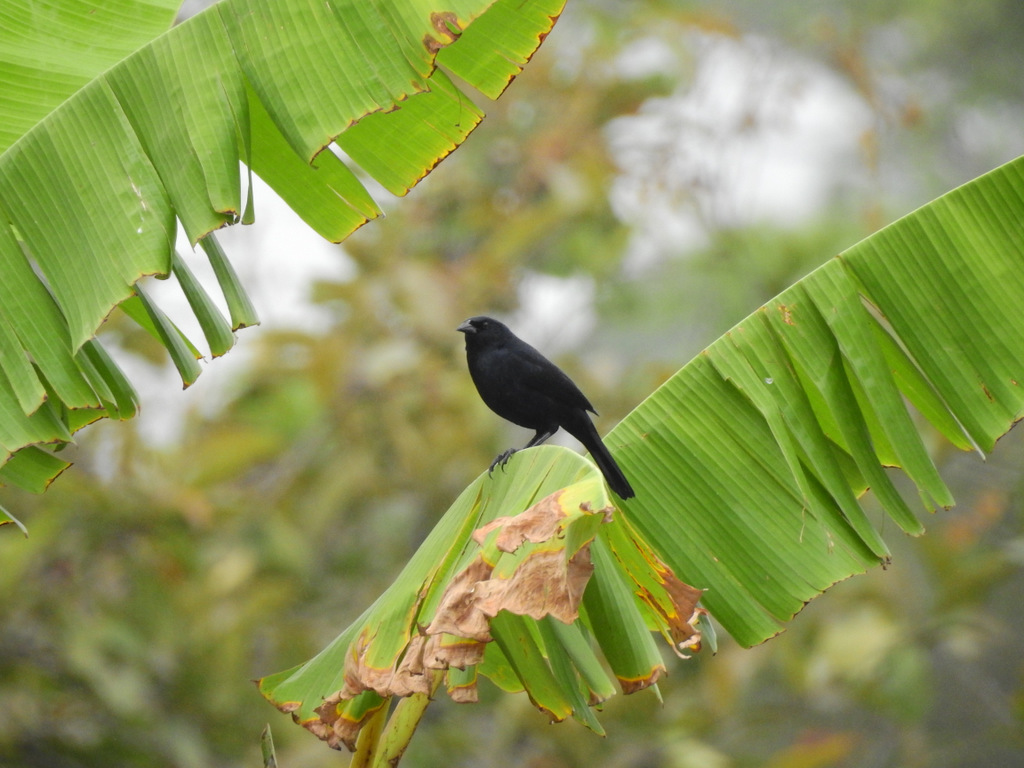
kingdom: Animalia
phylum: Chordata
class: Aves
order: Passeriformes
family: Icteridae
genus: Dives
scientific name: Dives warczewiczi
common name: Scrub blackbird
